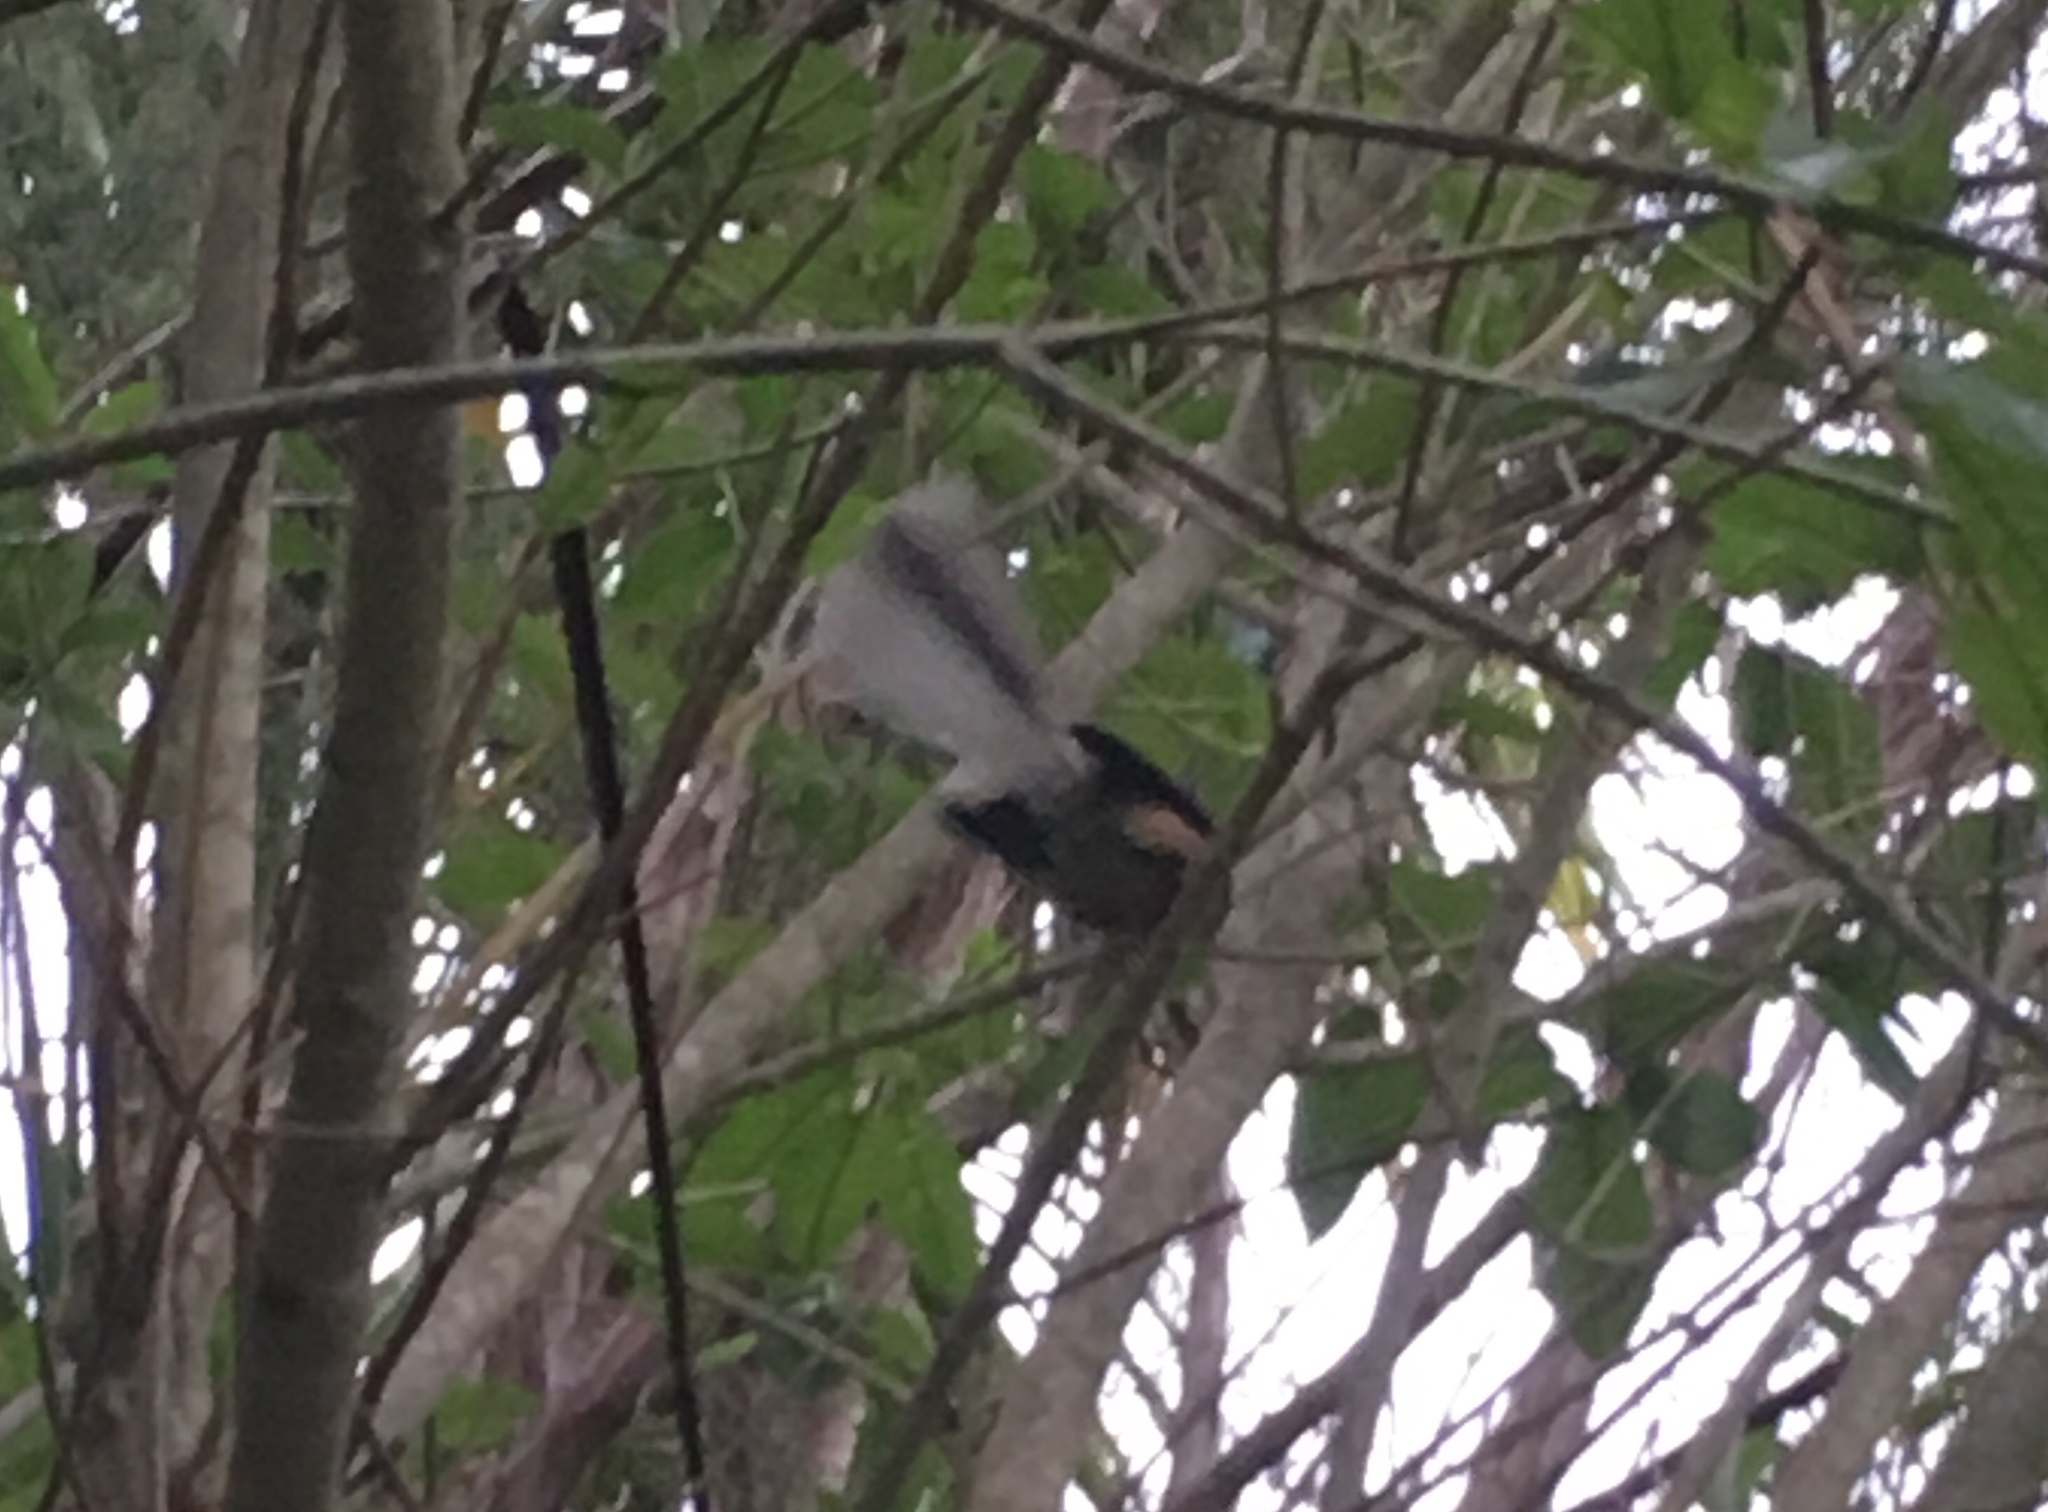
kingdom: Animalia
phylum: Chordata
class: Aves
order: Passeriformes
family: Rhipiduridae
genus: Rhipidura
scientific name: Rhipidura fuliginosa
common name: New zealand fantail
